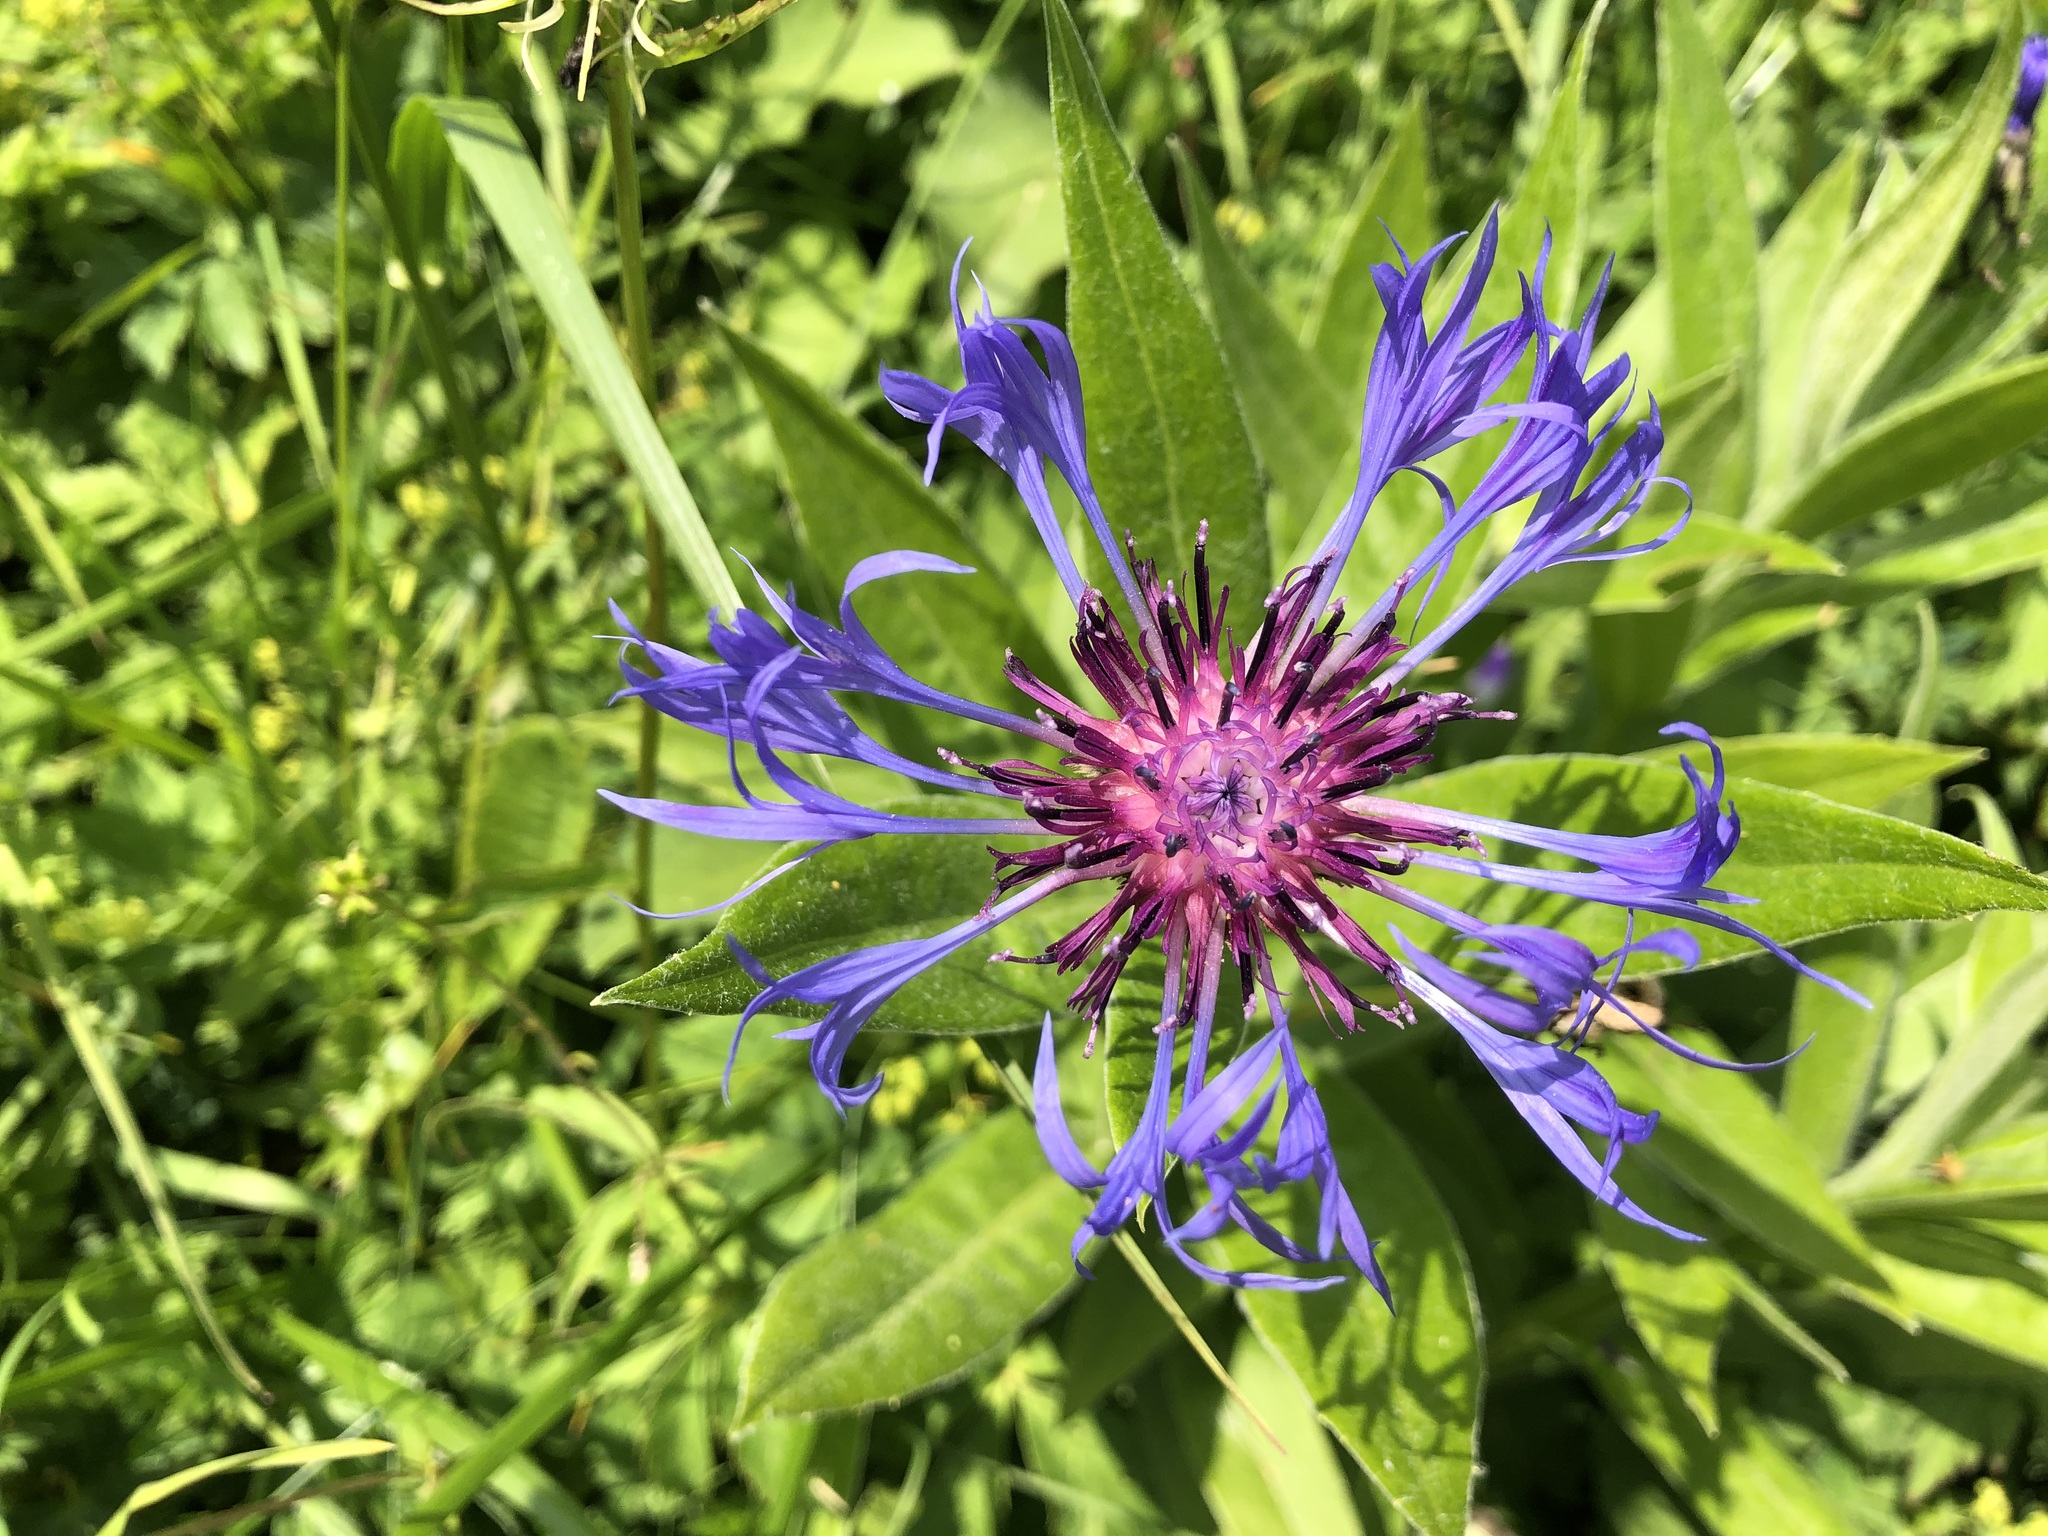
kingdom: Plantae
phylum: Tracheophyta
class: Magnoliopsida
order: Asterales
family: Asteraceae
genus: Centaurea
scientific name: Centaurea montana
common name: Perennial cornflower
